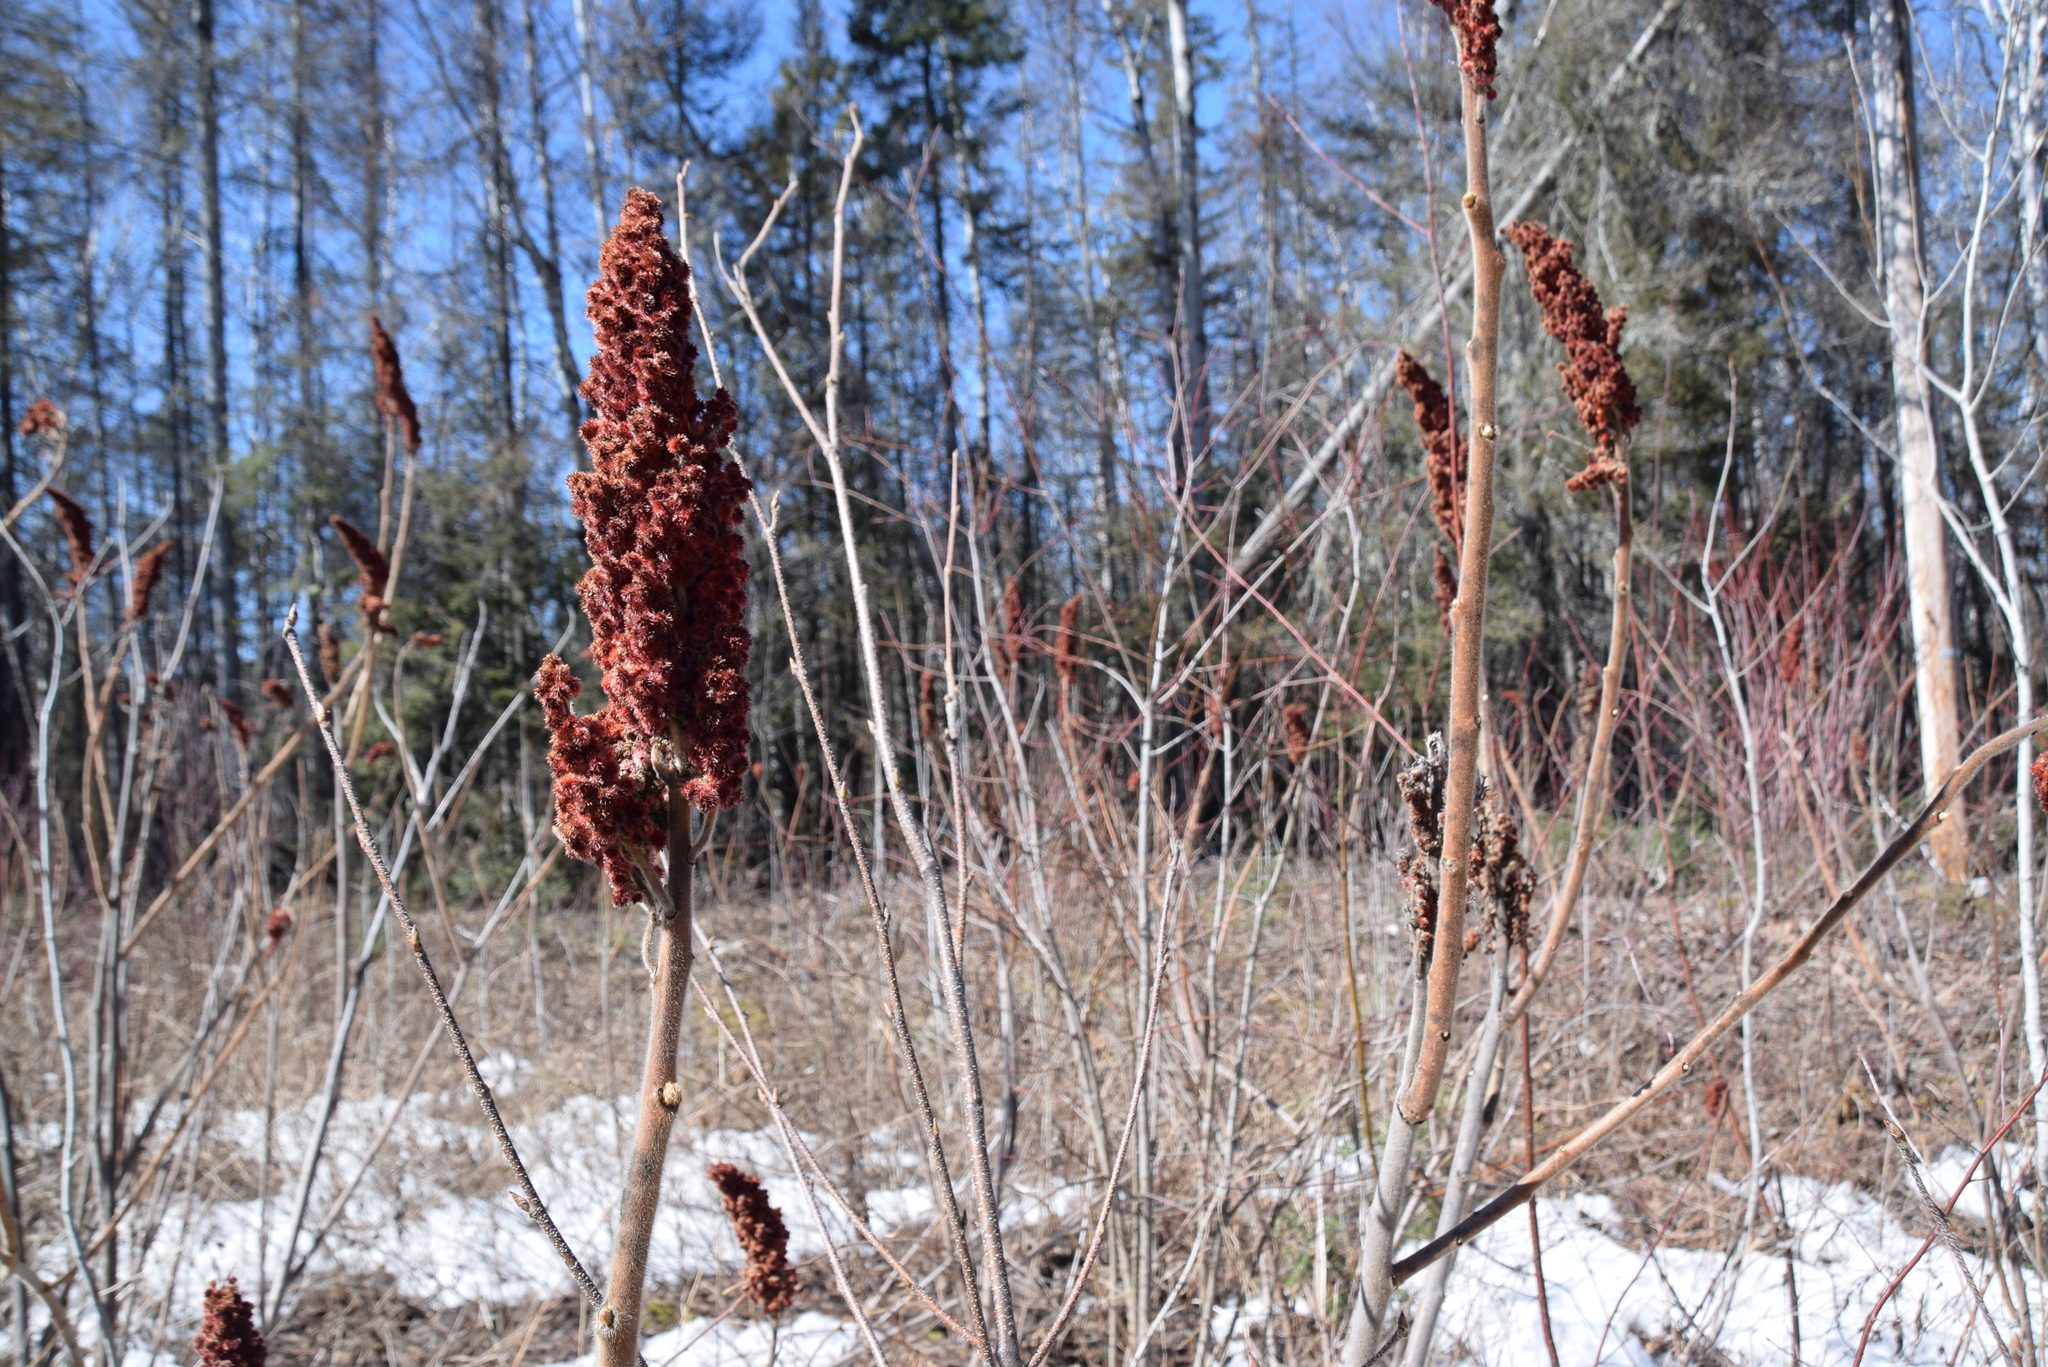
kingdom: Plantae
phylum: Tracheophyta
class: Magnoliopsida
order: Sapindales
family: Anacardiaceae
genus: Rhus
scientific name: Rhus typhina
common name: Staghorn sumac
